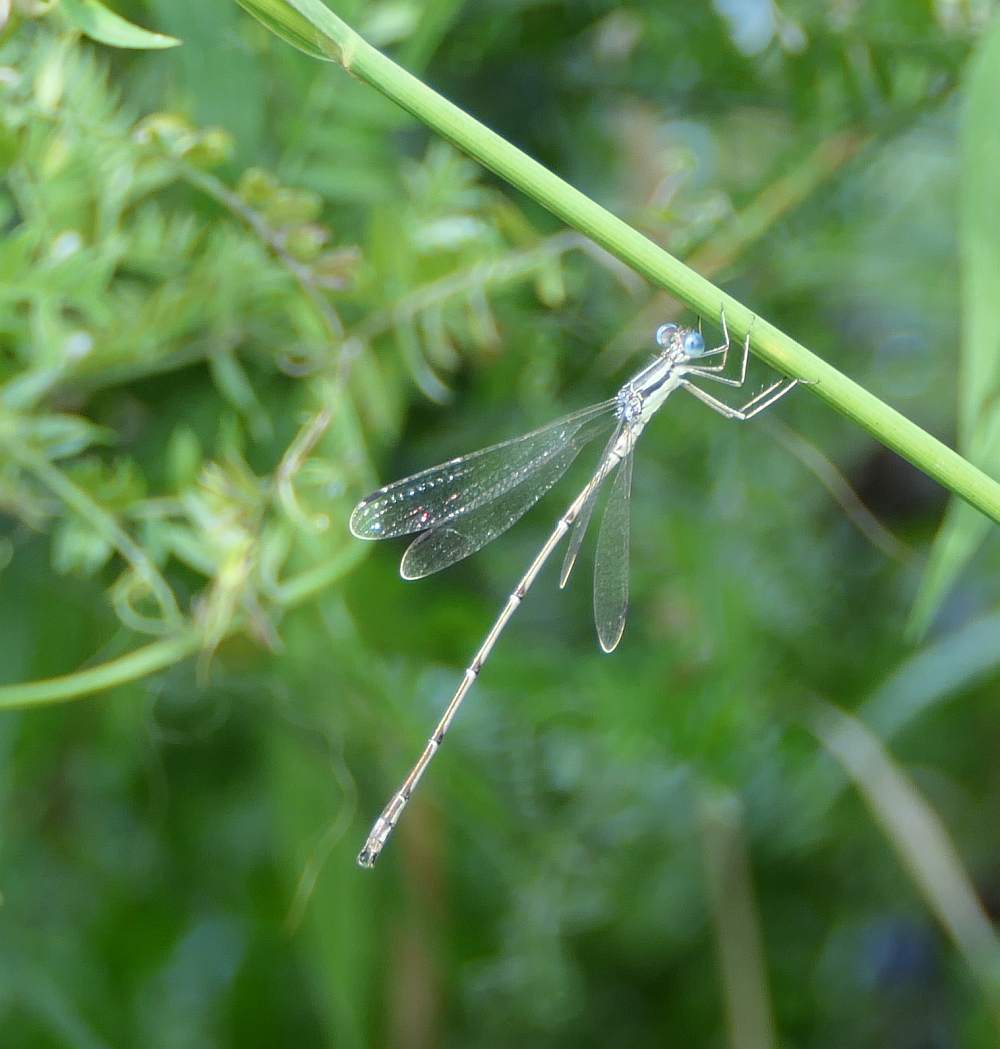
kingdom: Animalia
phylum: Arthropoda
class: Insecta
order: Odonata
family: Lestidae
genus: Lestes
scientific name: Lestes rectangularis
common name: Slender spreadwing
